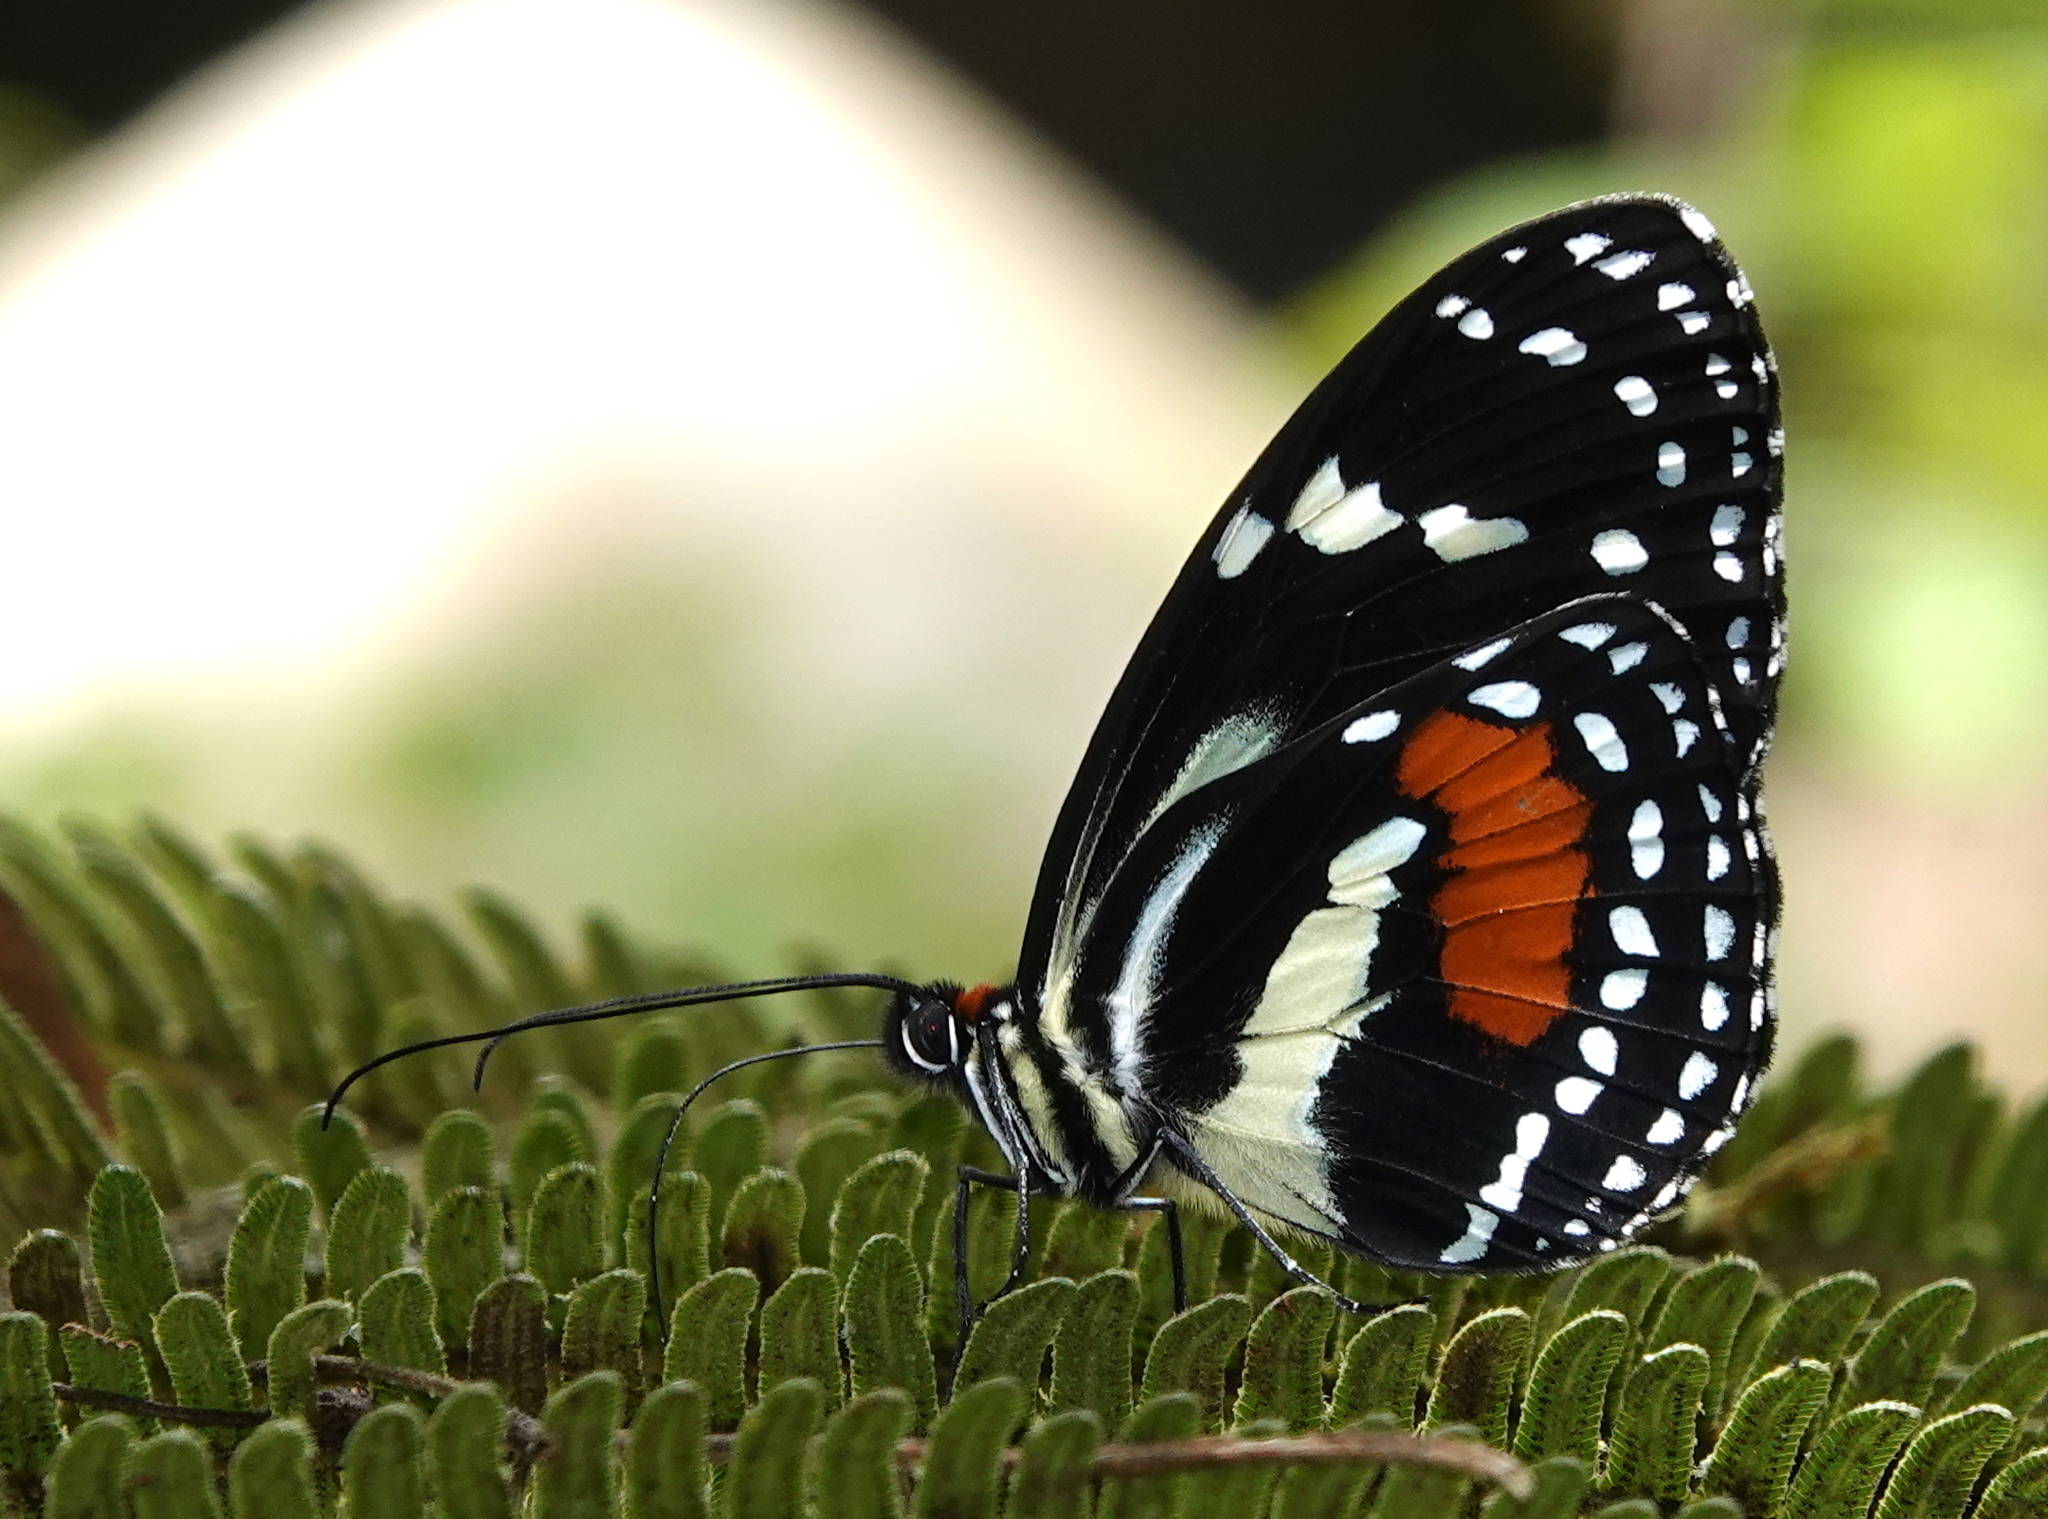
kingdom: Animalia
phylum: Arthropoda
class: Insecta
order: Lepidoptera
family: Nymphalidae
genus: Elzunia
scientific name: Elzunia bomplandii
